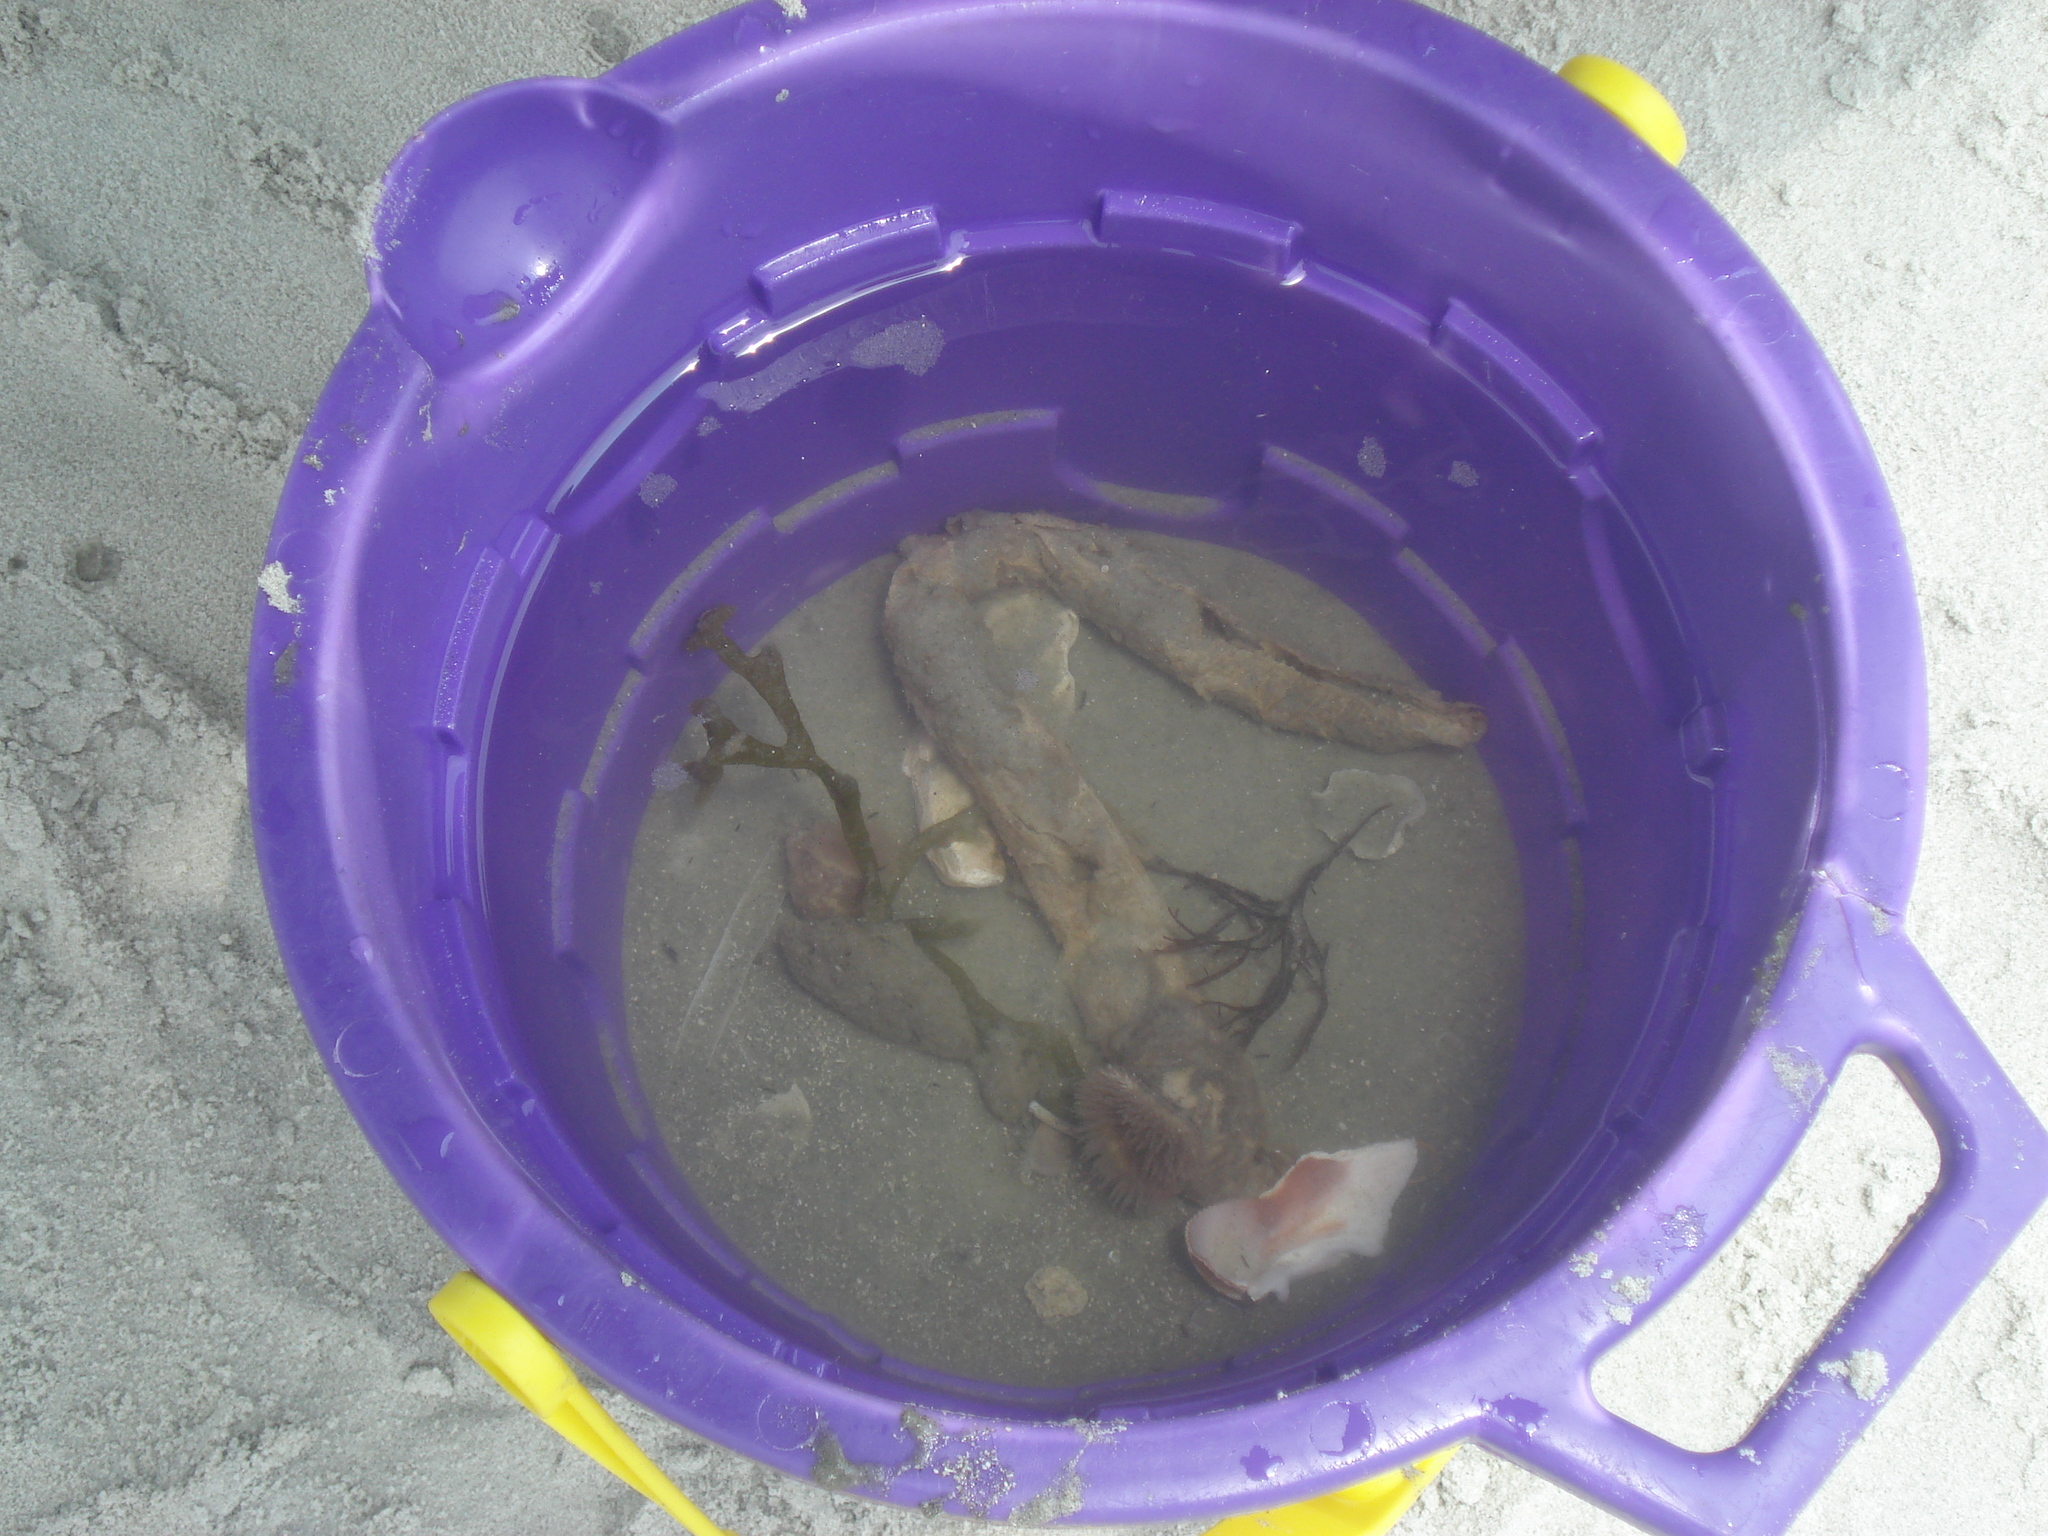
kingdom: Animalia
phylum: Cnidaria
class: Anthozoa
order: Actiniaria
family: Hormathiidae
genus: Calliactis
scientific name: Calliactis tricolor
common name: Hermit anemone
